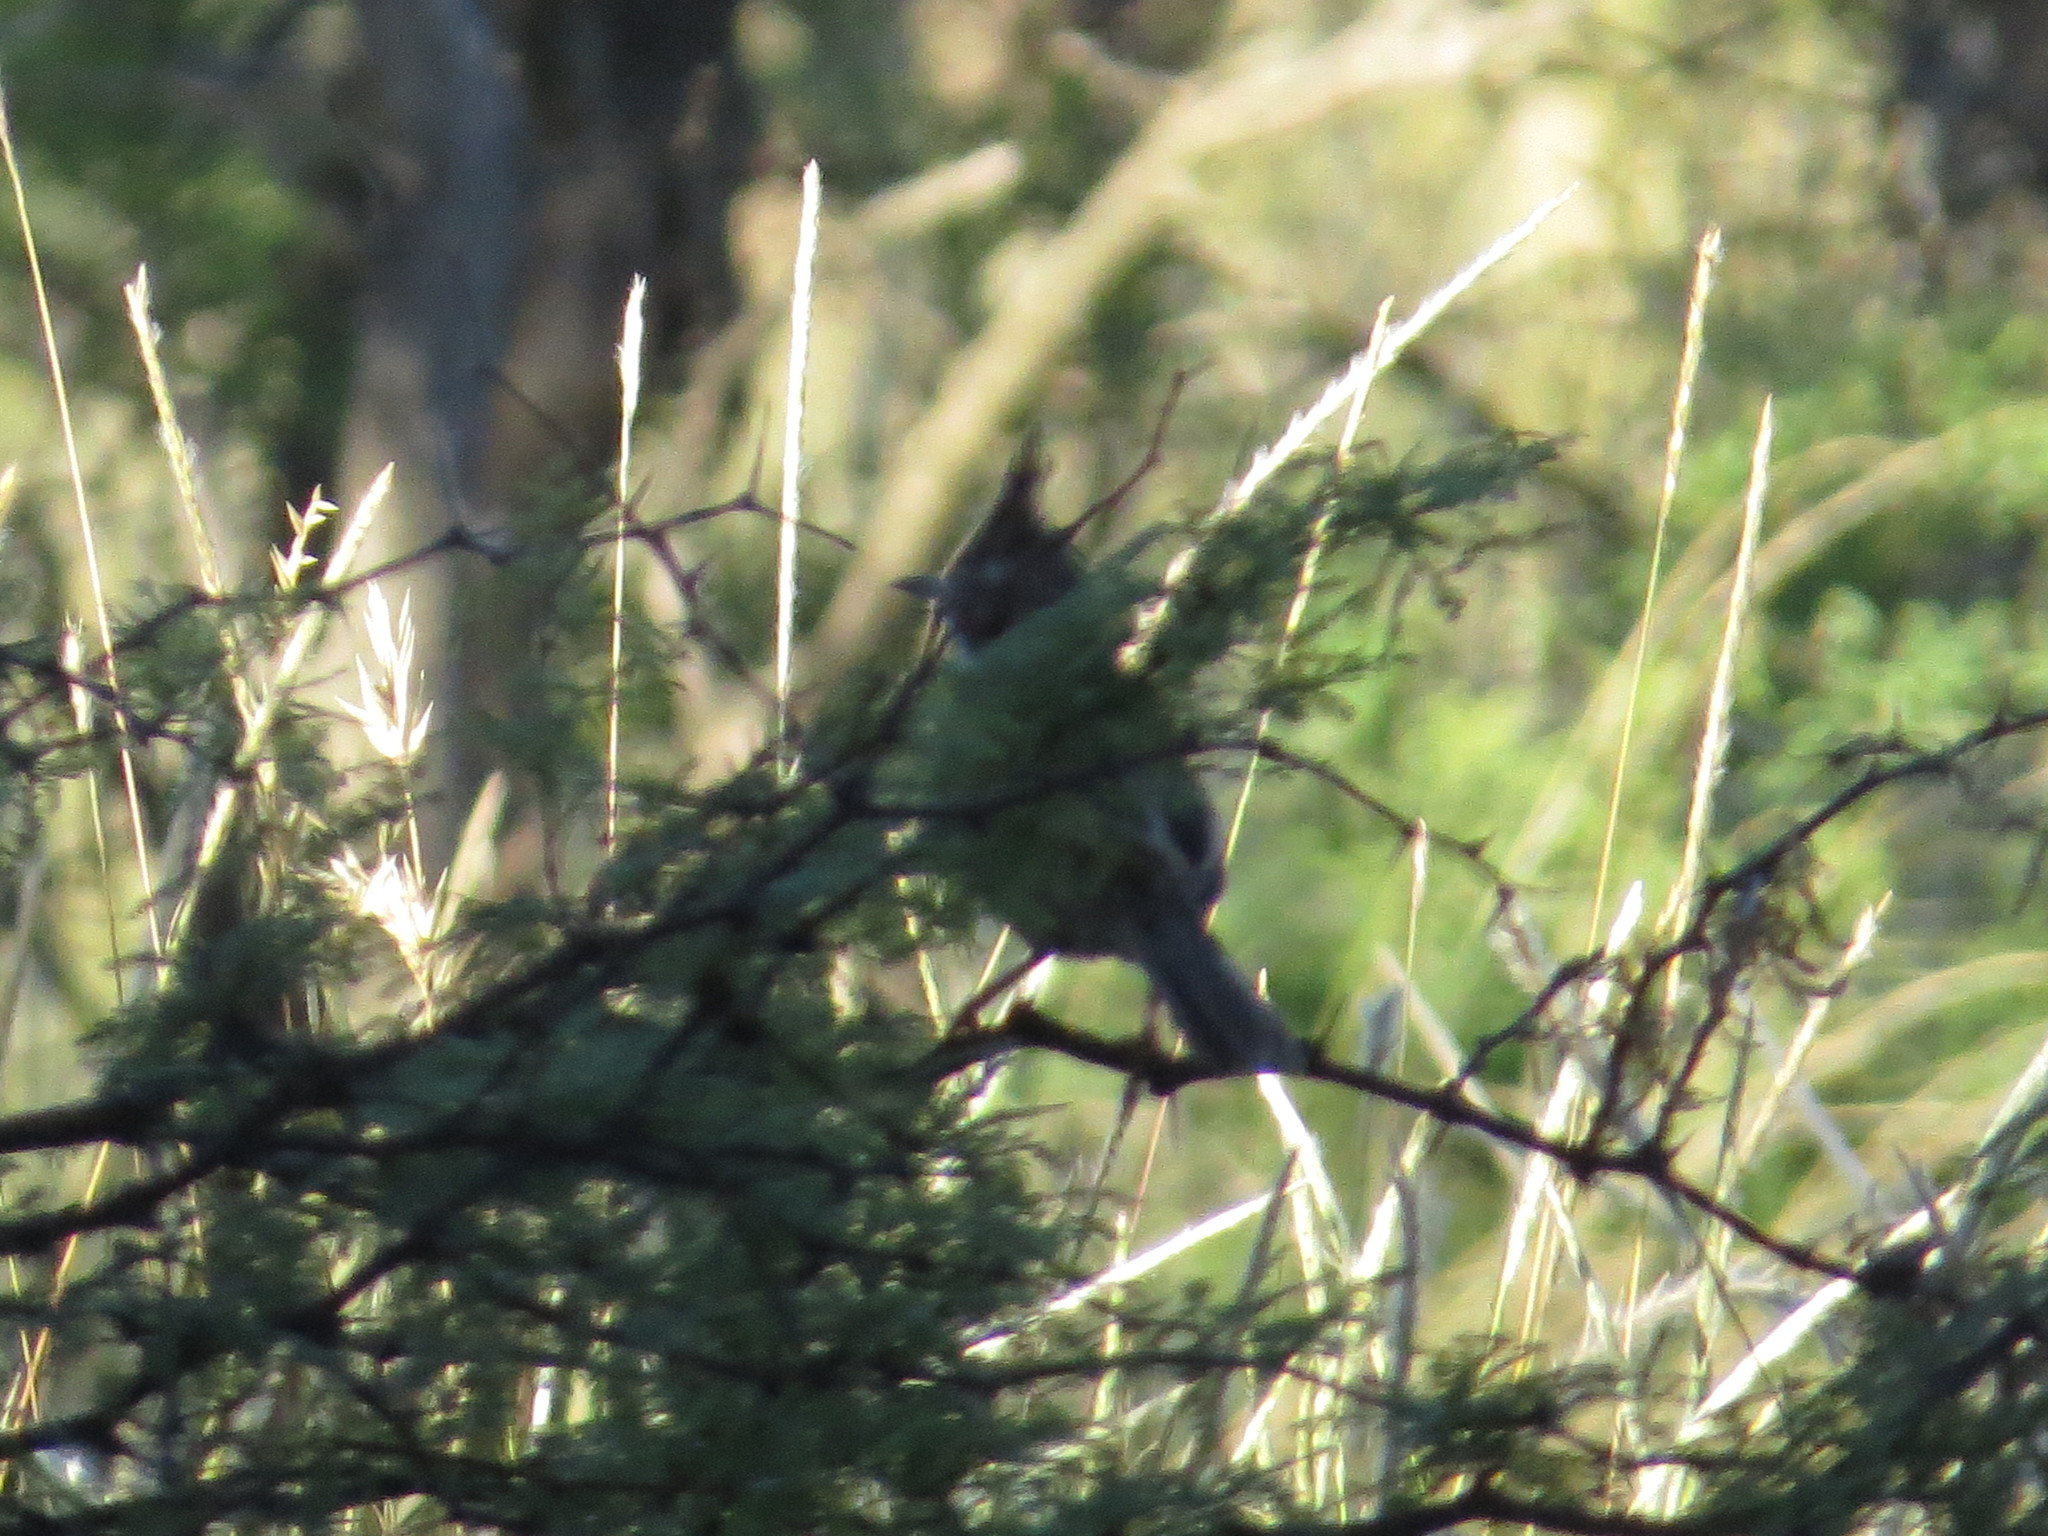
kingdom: Animalia
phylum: Chordata
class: Aves
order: Passeriformes
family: Furnariidae
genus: Coryphistera
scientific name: Coryphistera alaudina
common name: Lark-like brushrunner
